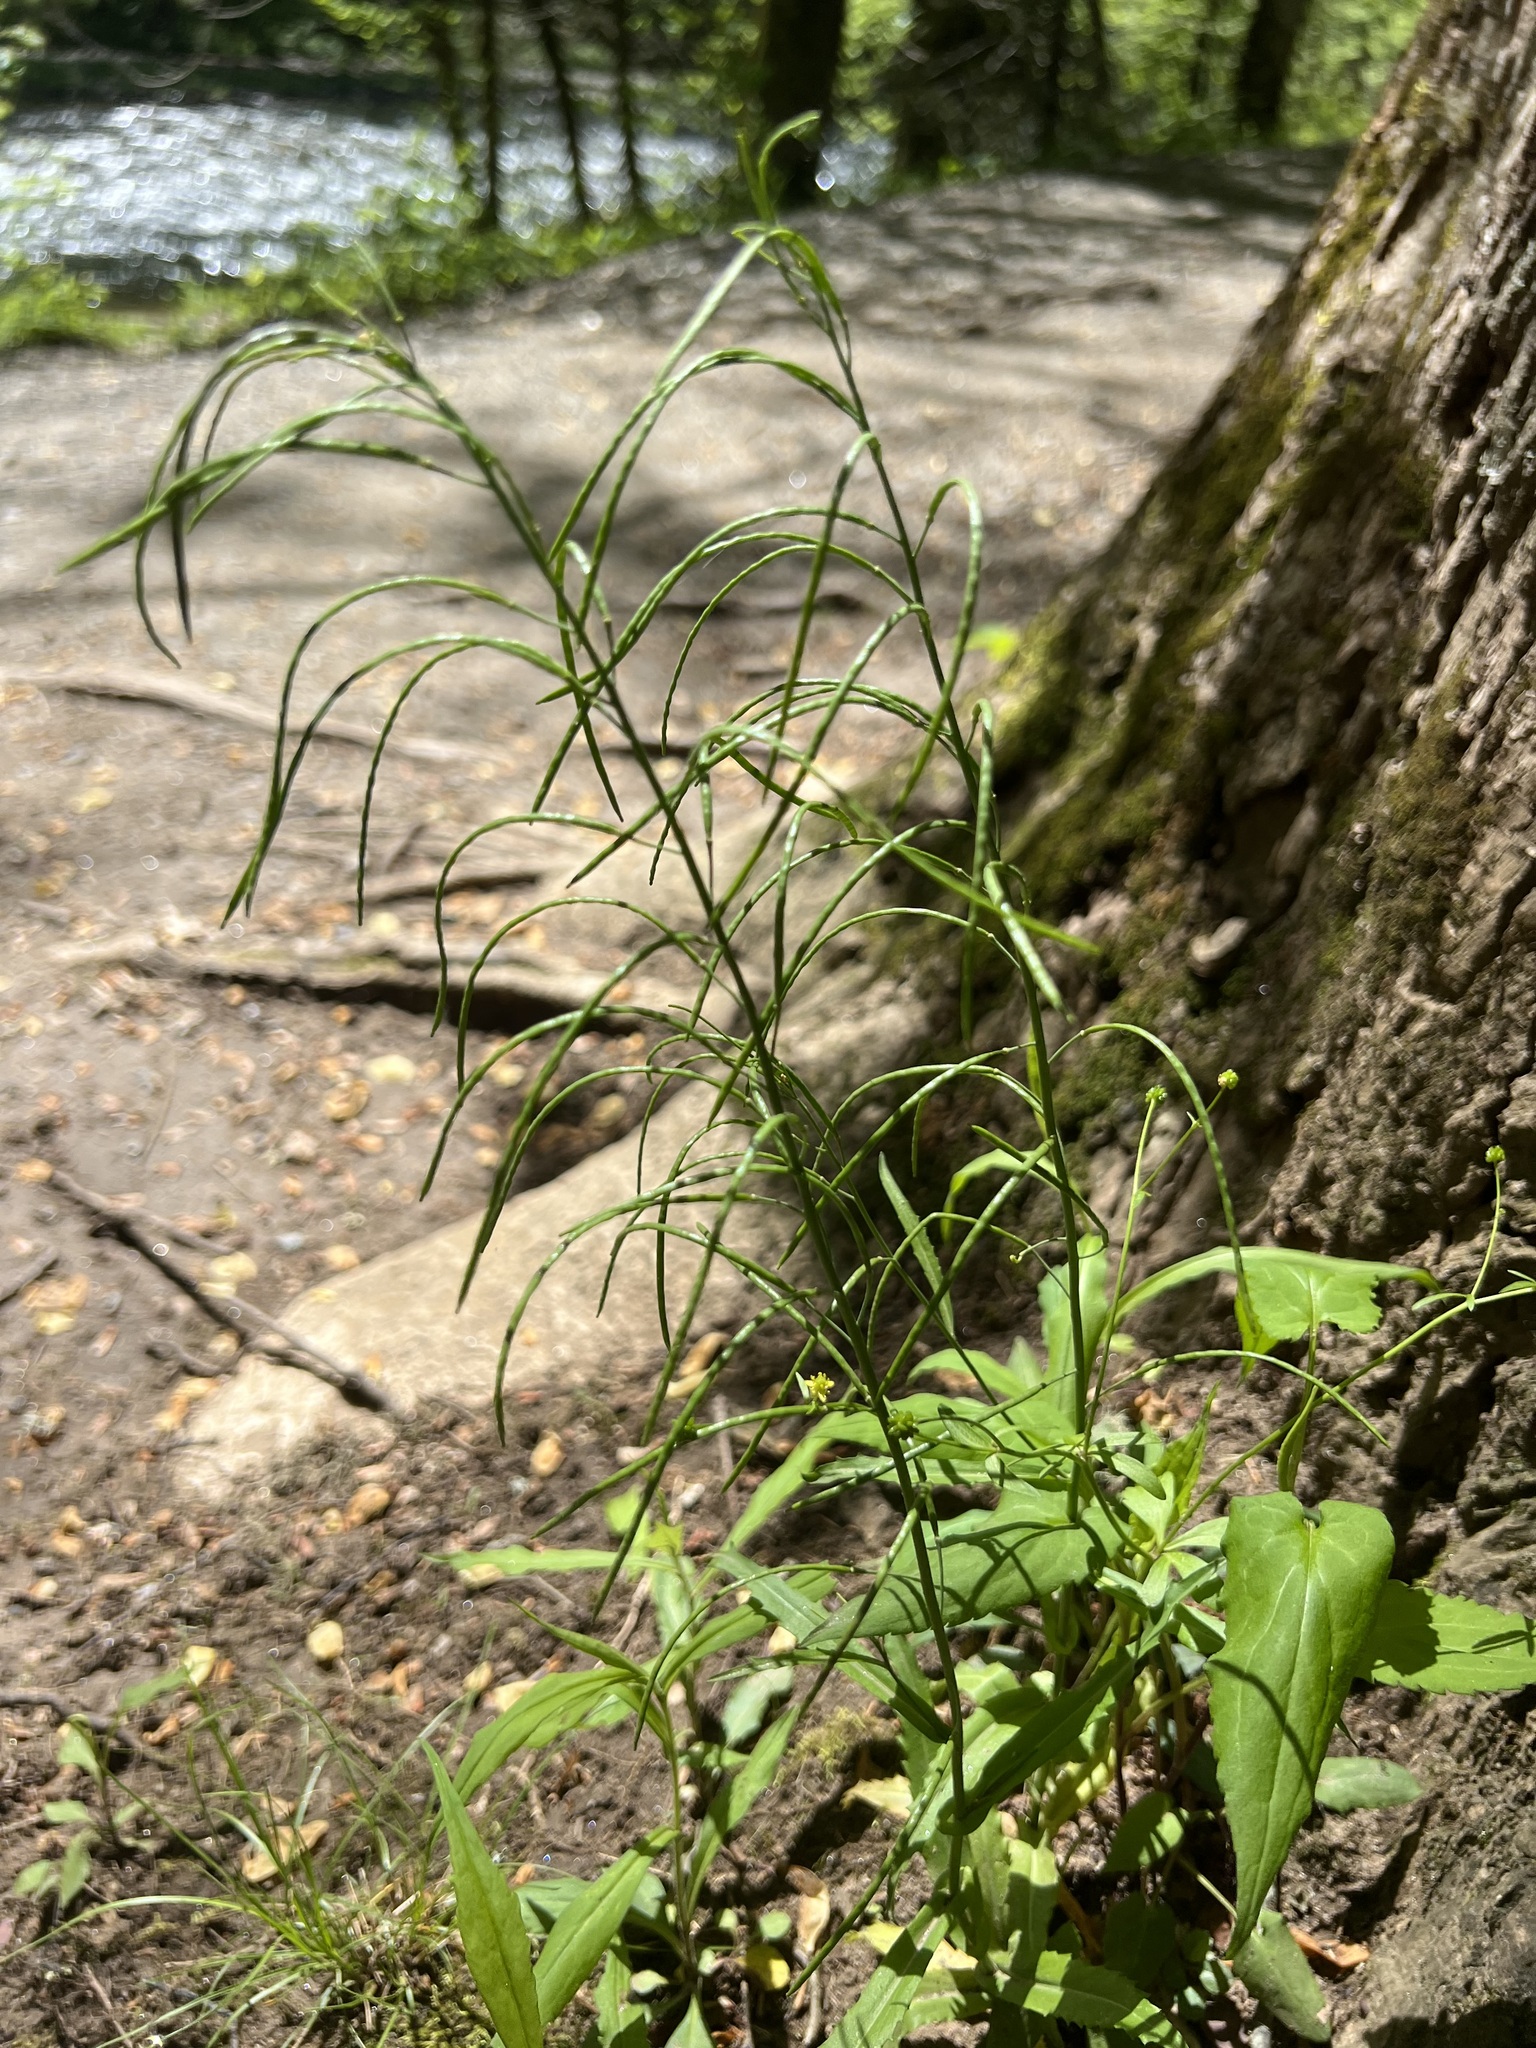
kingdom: Plantae
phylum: Tracheophyta
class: Magnoliopsida
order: Brassicales
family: Brassicaceae
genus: Borodinia
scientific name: Borodinia laevigata
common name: Smooth rockcress
